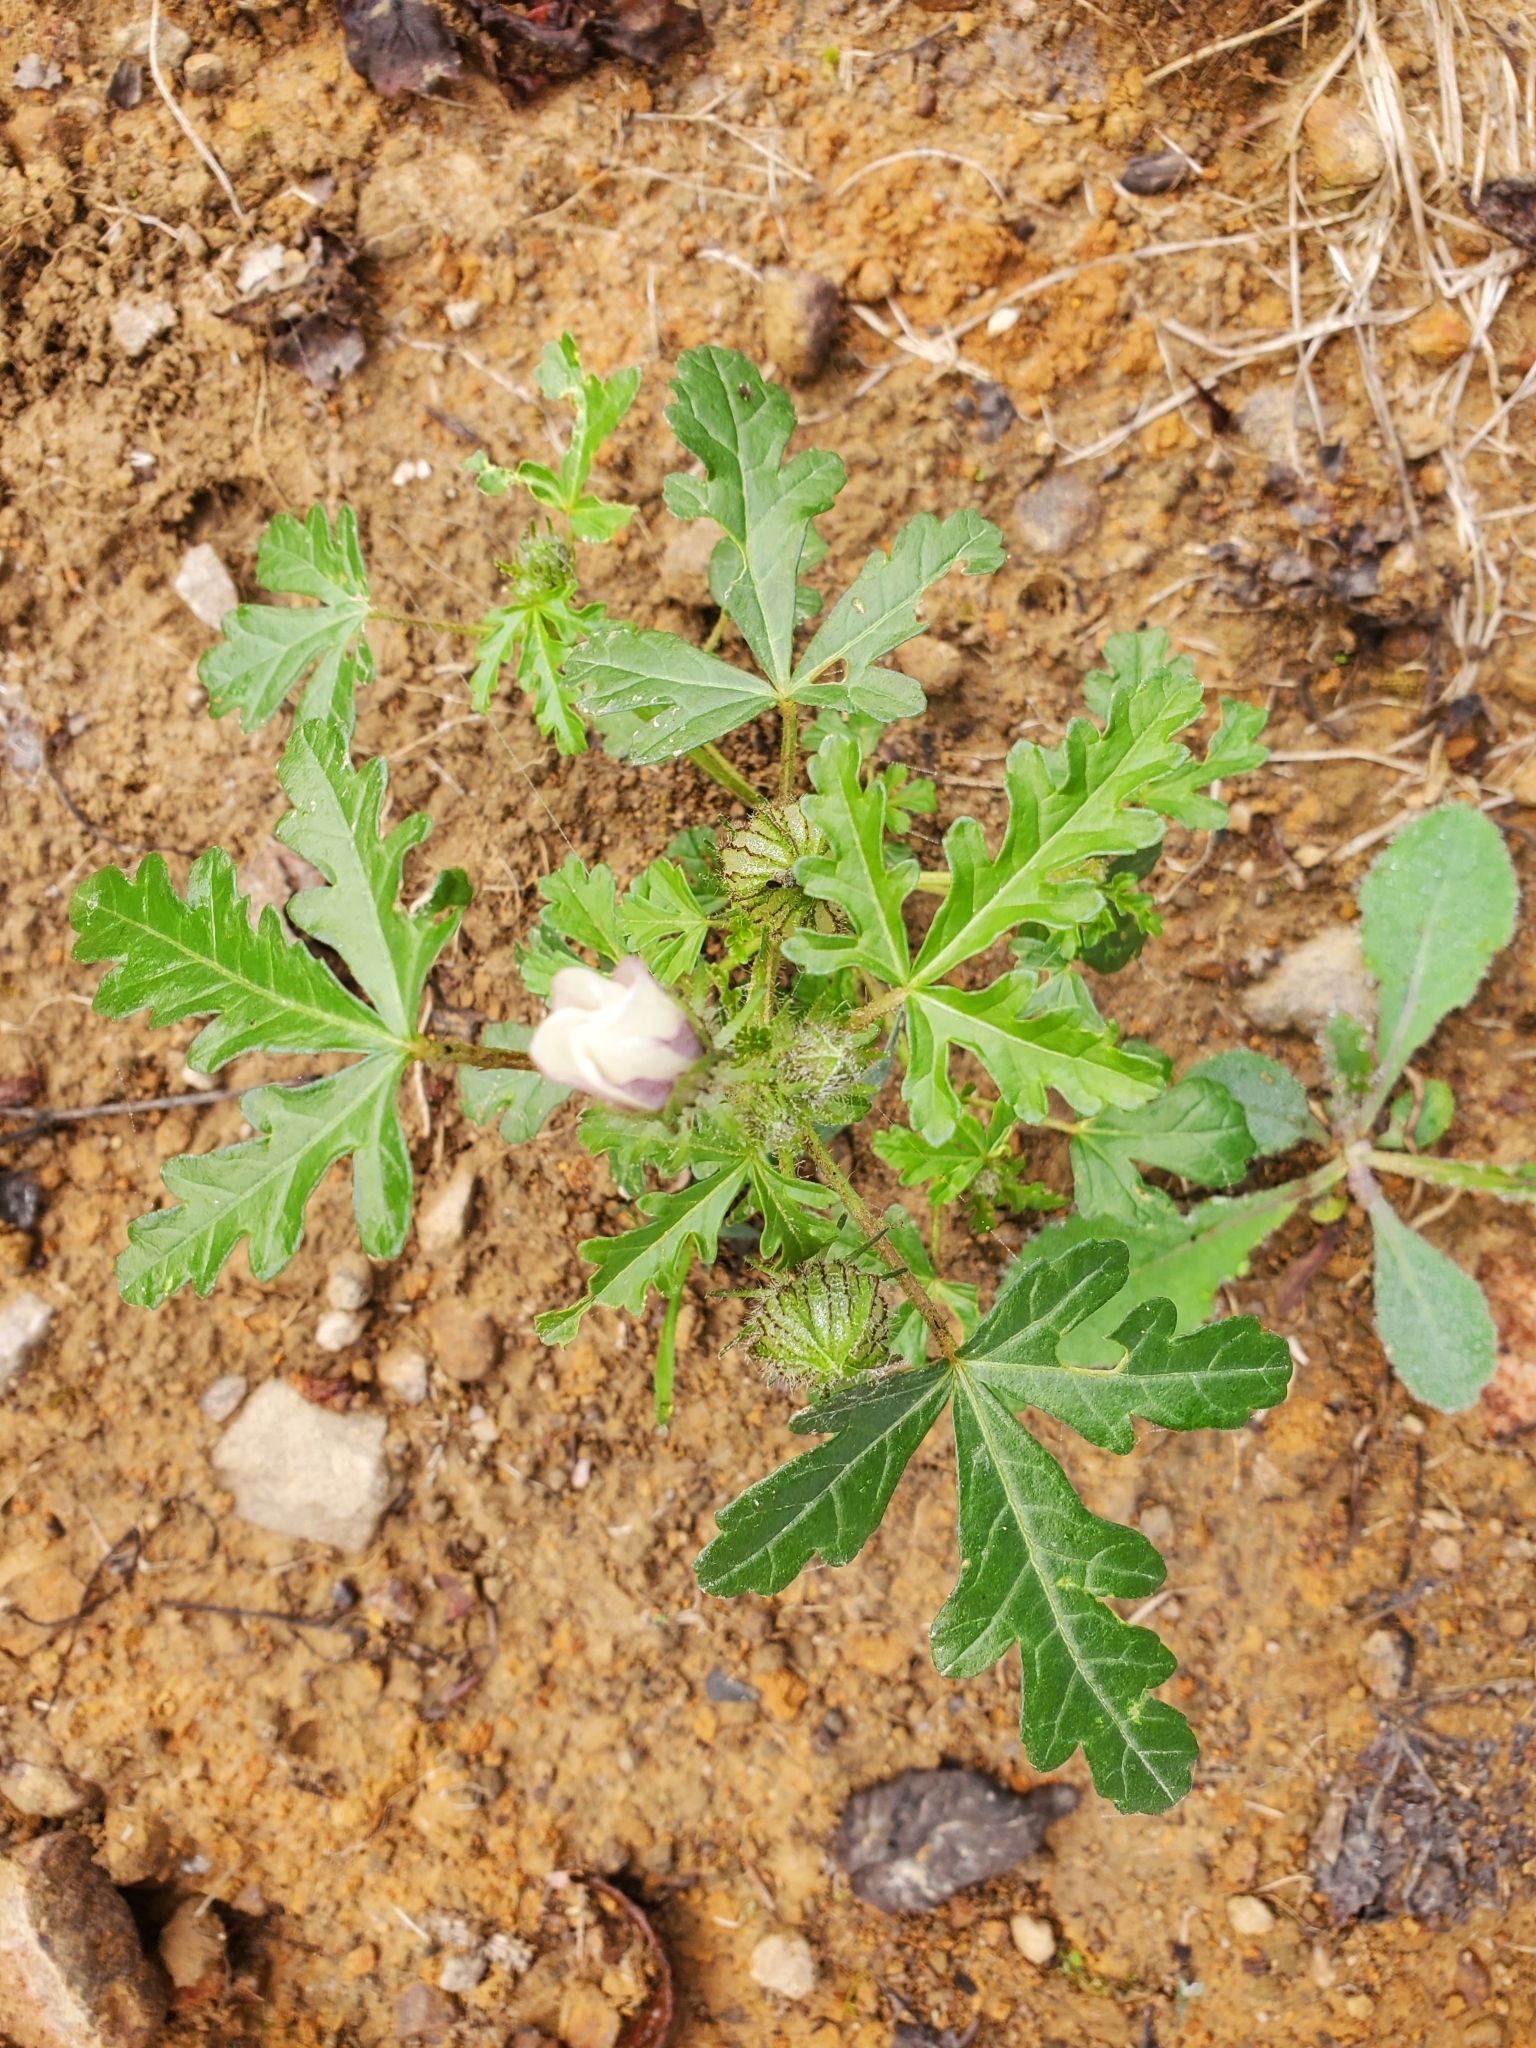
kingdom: Plantae
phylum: Tracheophyta
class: Magnoliopsida
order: Malvales
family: Malvaceae
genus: Hibiscus
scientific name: Hibiscus trionum
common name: Bladder ketmia
